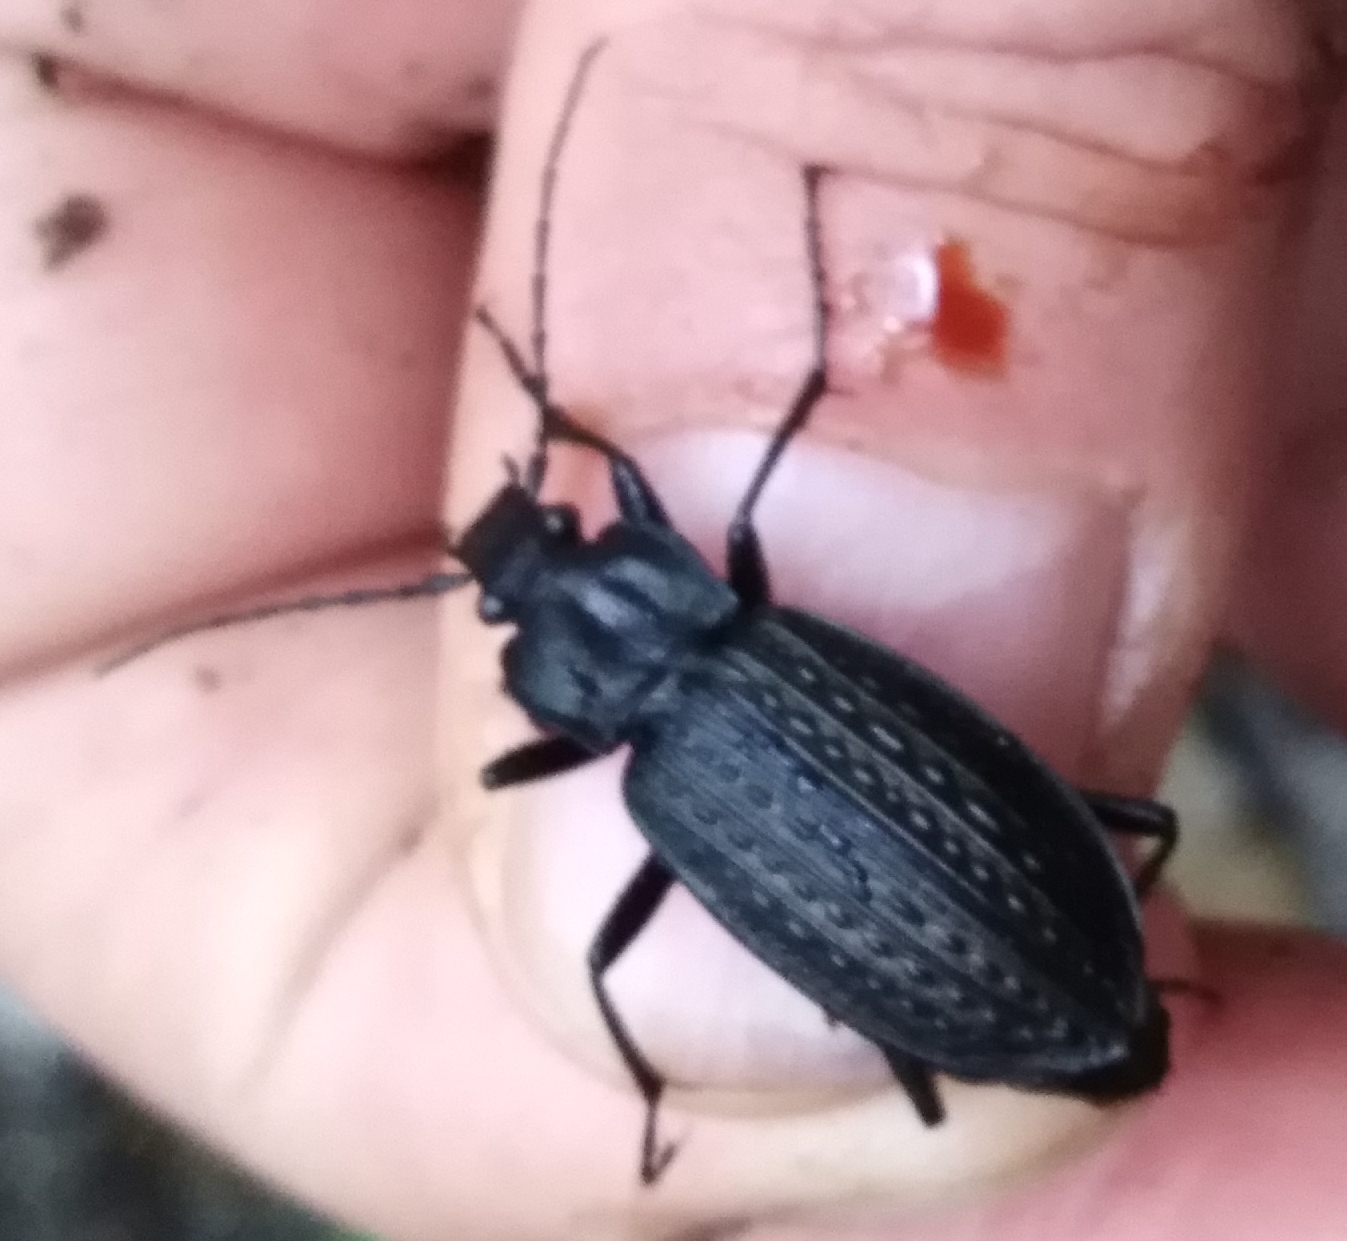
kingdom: Animalia
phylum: Arthropoda
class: Insecta
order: Coleoptera
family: Carabidae
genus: Carabus
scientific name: Carabus granulatus
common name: Granulate ground beetle
